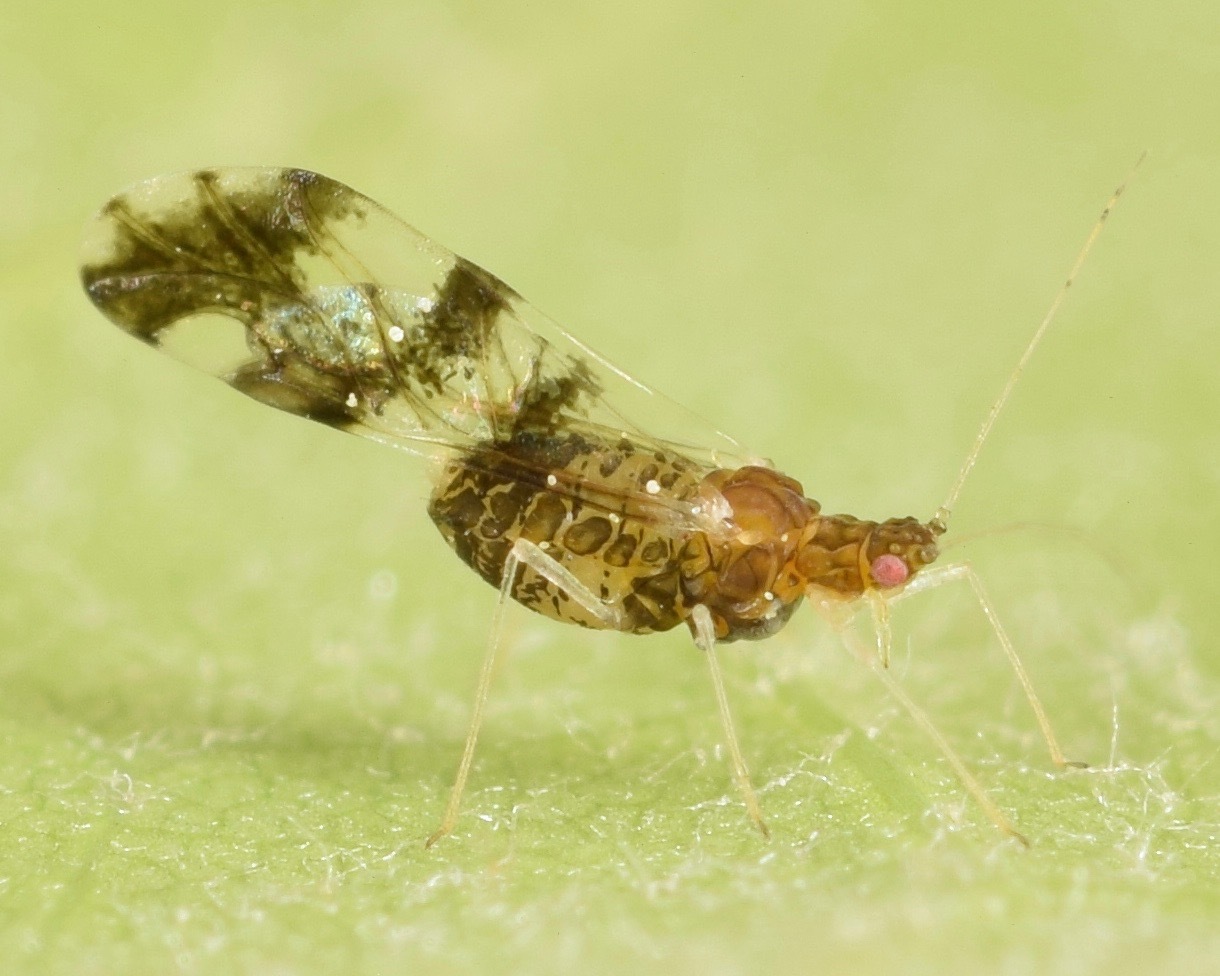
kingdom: Animalia
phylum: Arthropoda
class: Insecta
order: Hemiptera
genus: Neomyzocallis
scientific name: Neomyzocallis
